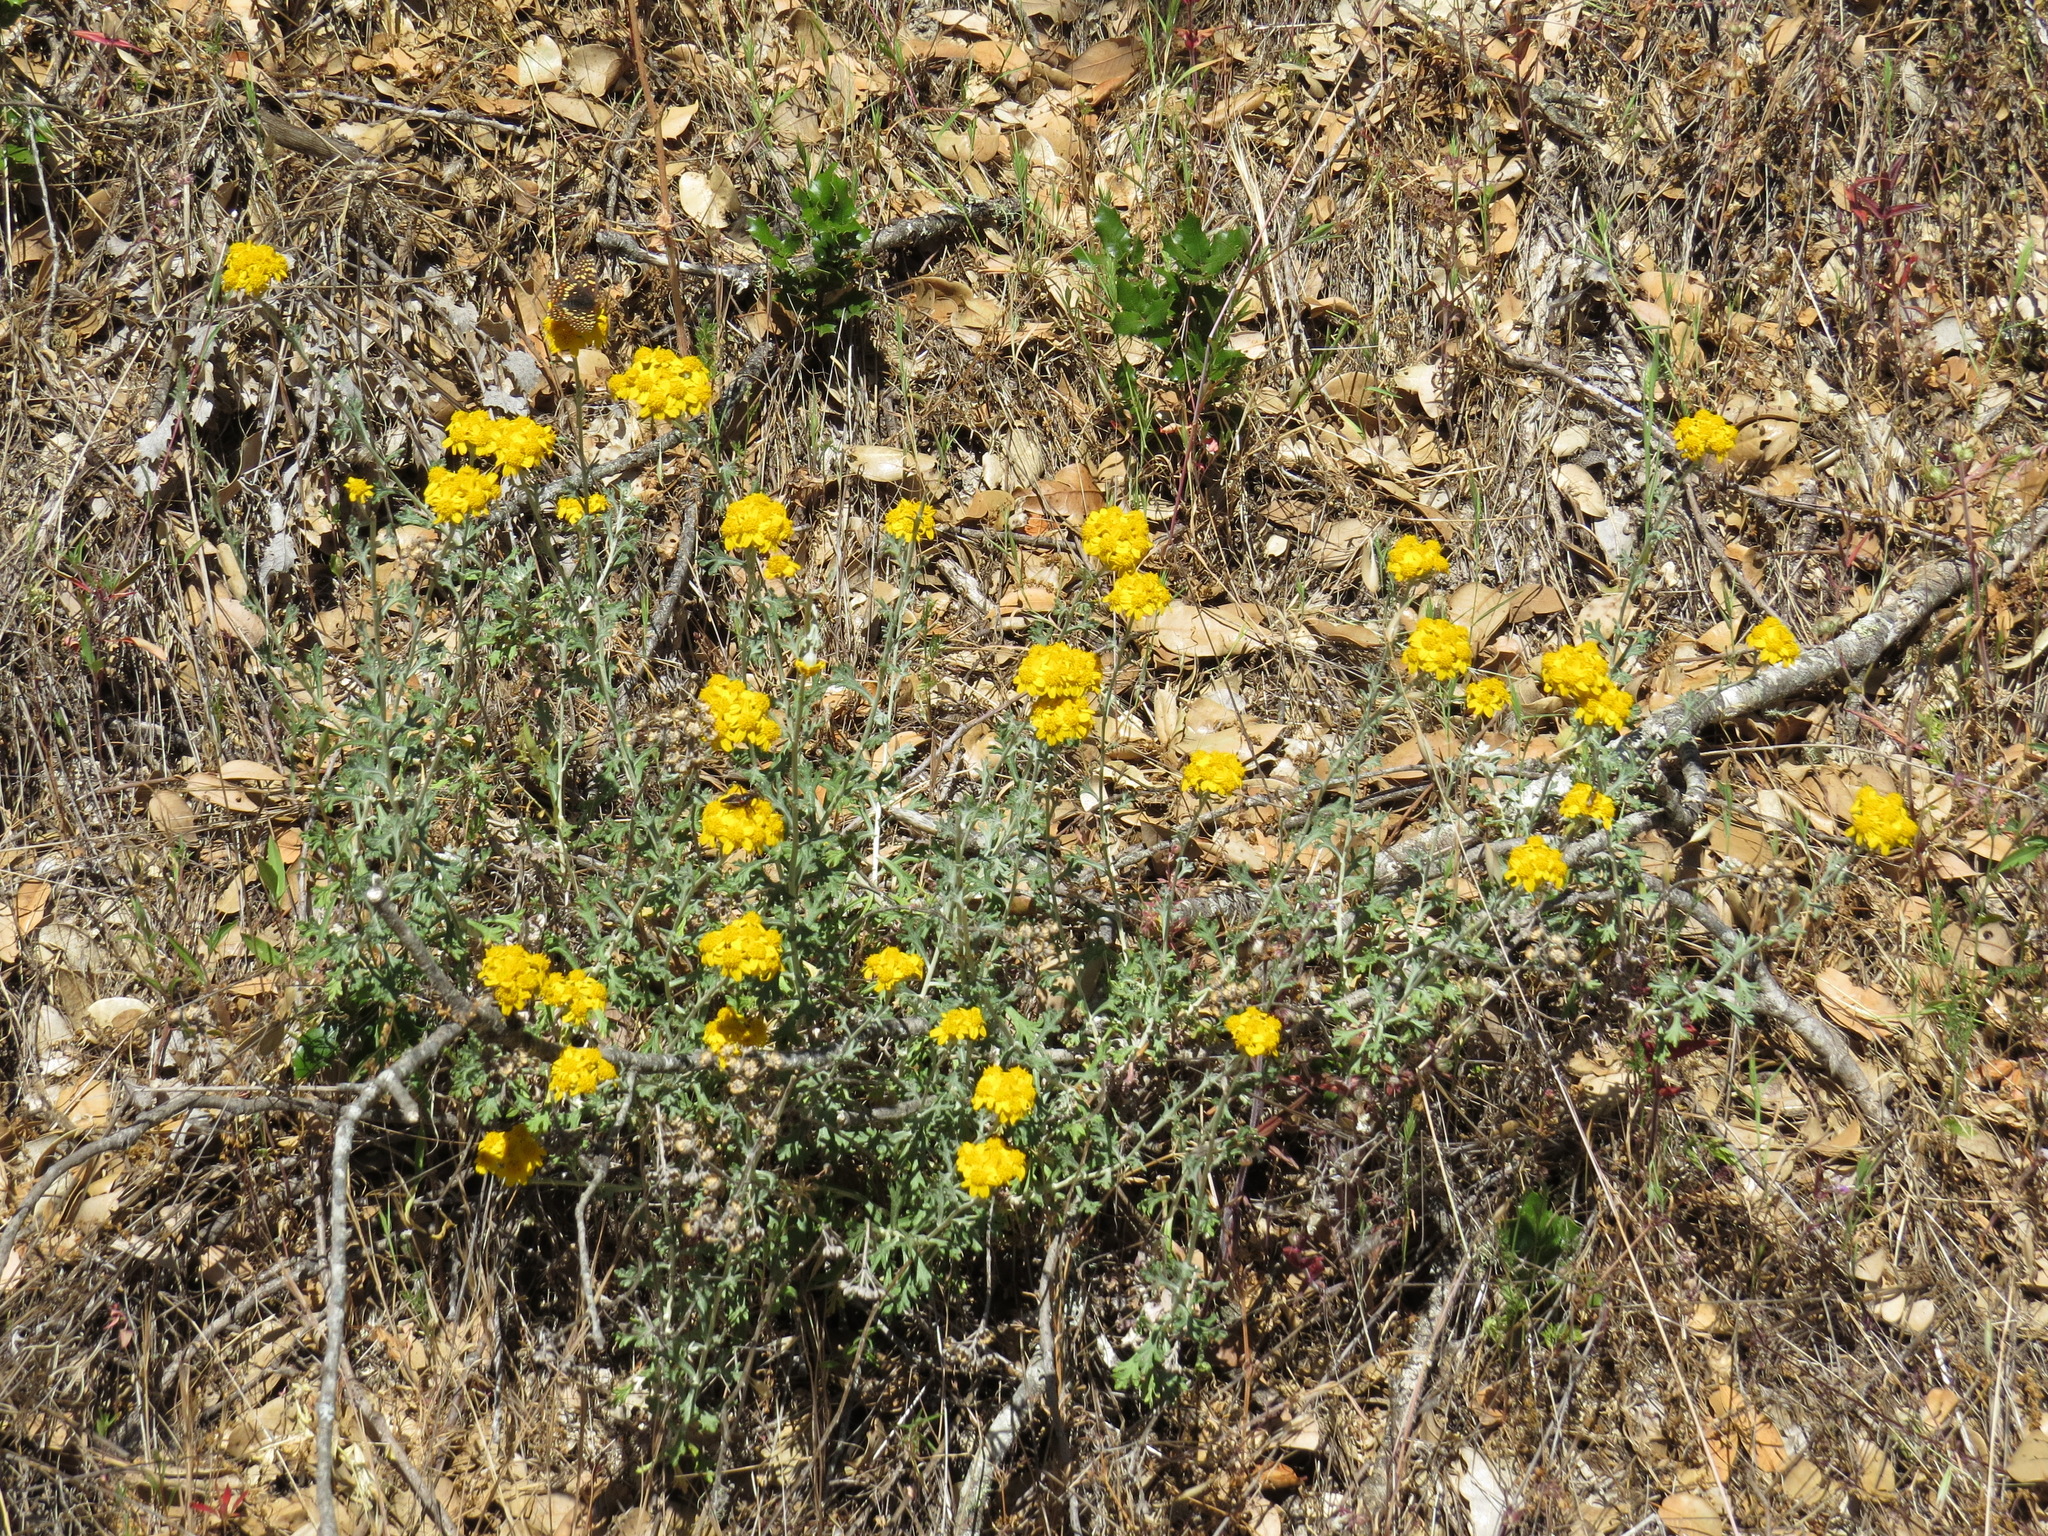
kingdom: Plantae
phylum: Tracheophyta
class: Magnoliopsida
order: Asterales
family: Asteraceae
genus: Eriophyllum
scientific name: Eriophyllum confertiflorum
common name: Golden-yarrow
